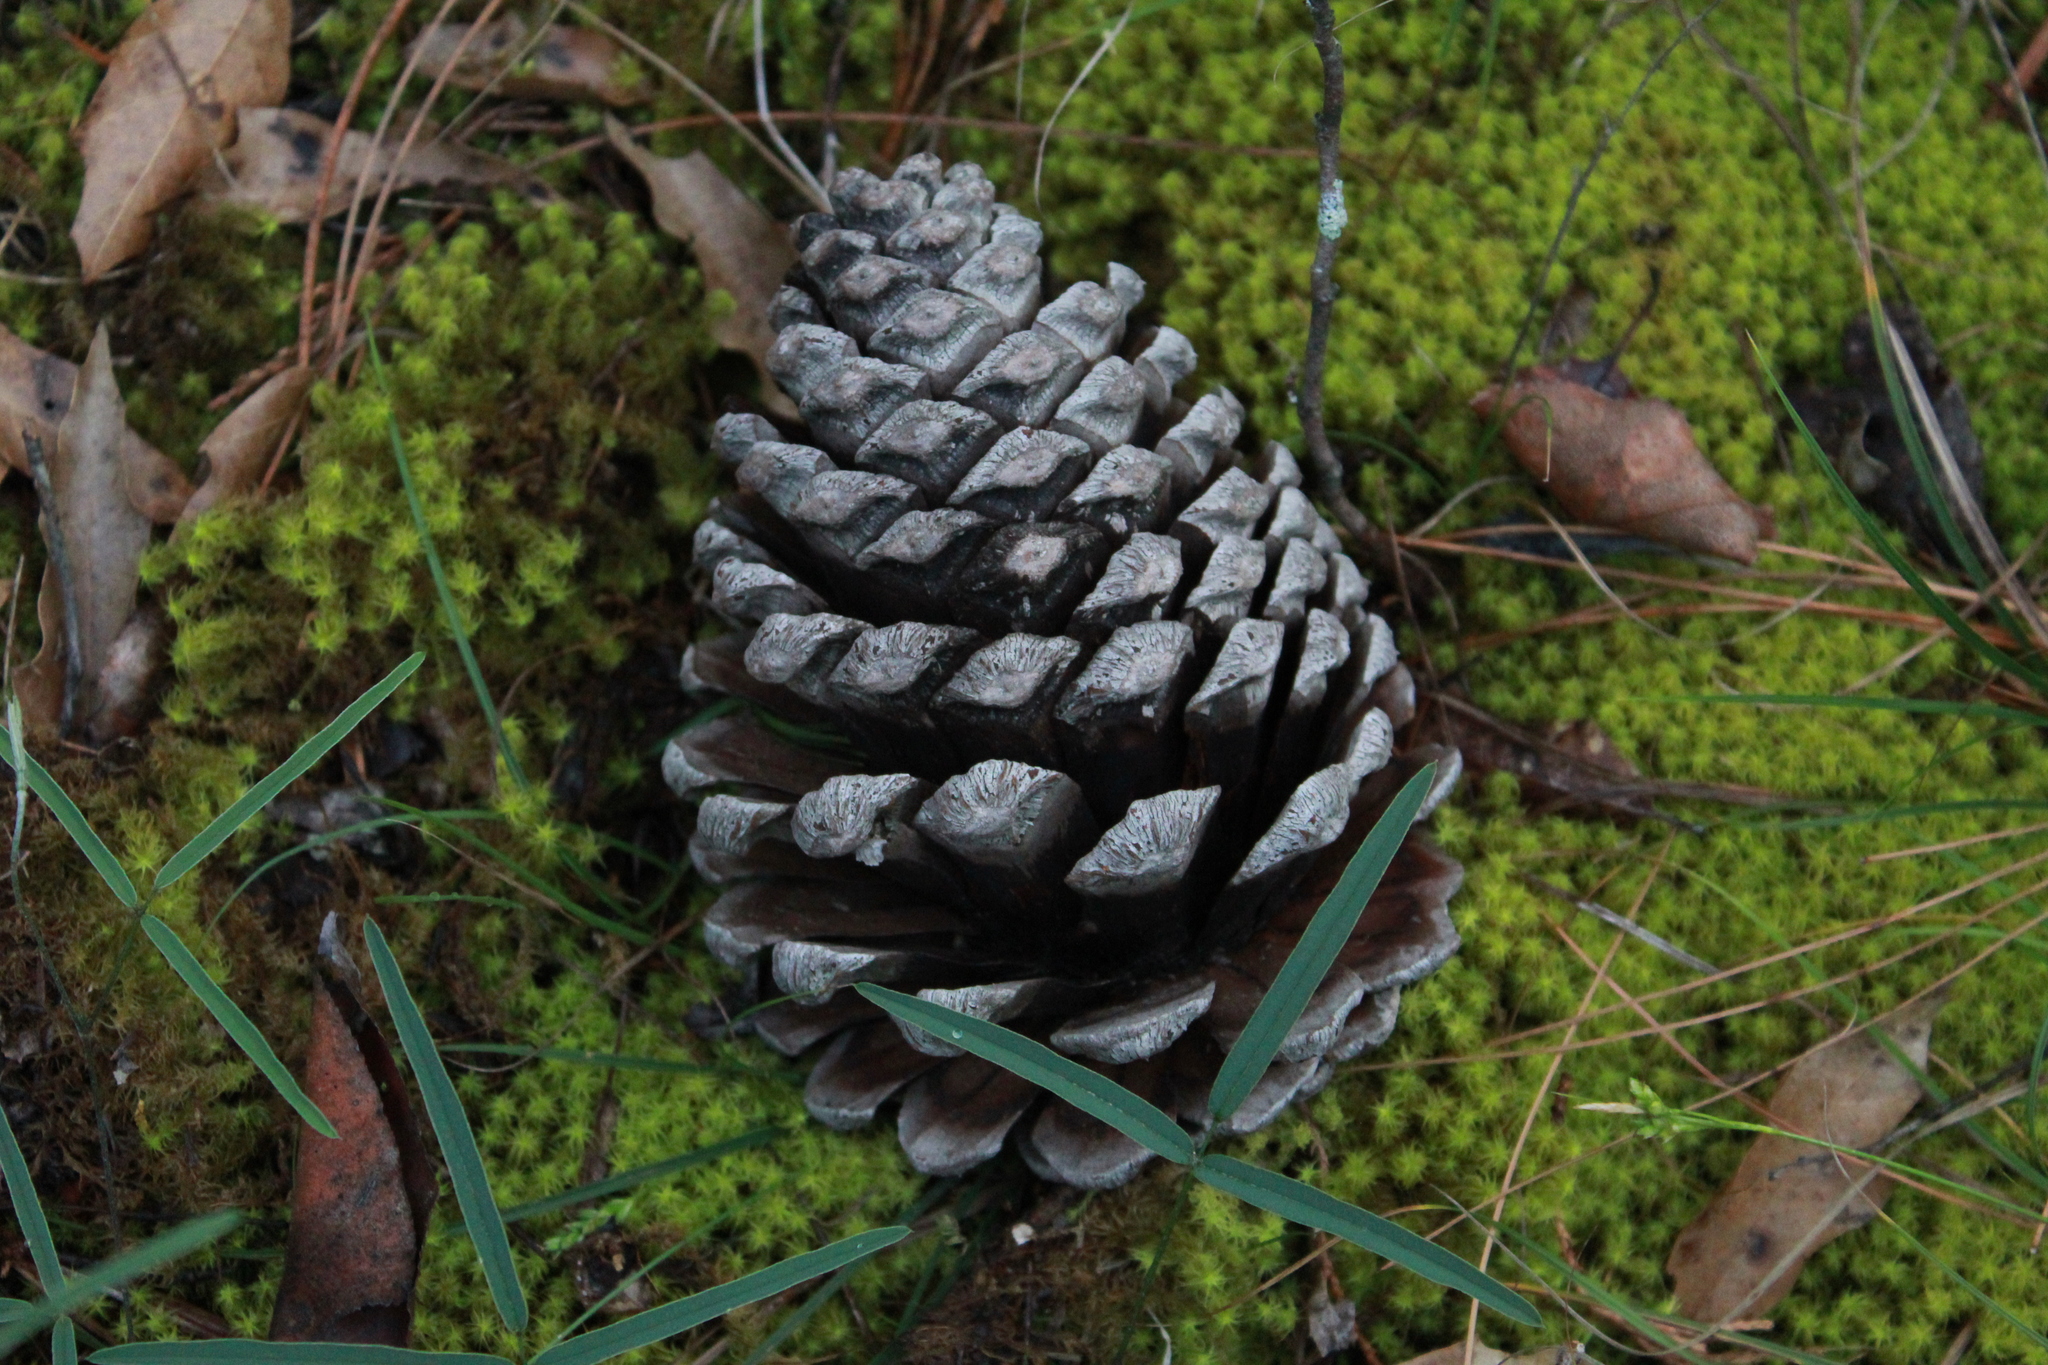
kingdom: Plantae
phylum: Tracheophyta
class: Pinopsida
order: Pinales
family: Pinaceae
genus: Pinus
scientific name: Pinus pseudostrobus
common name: False weymouth pine
